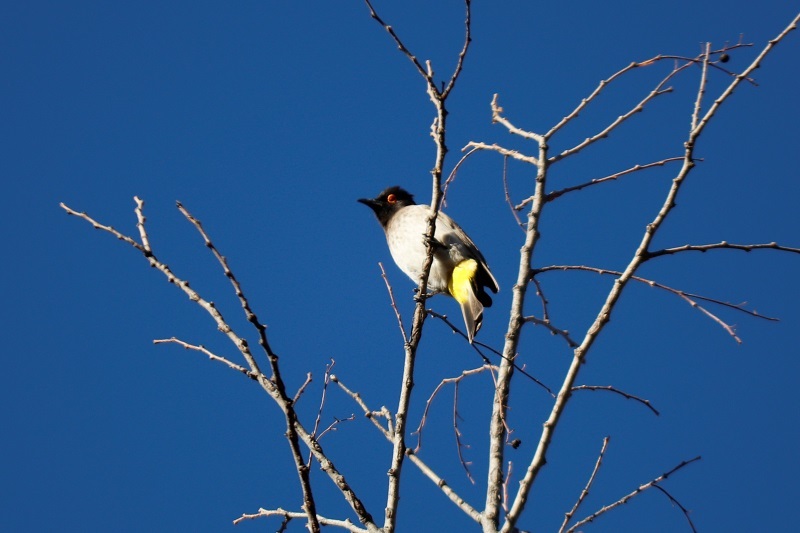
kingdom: Animalia
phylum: Chordata
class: Aves
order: Passeriformes
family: Pycnonotidae
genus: Pycnonotus
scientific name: Pycnonotus nigricans
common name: African red-eyed bulbul
